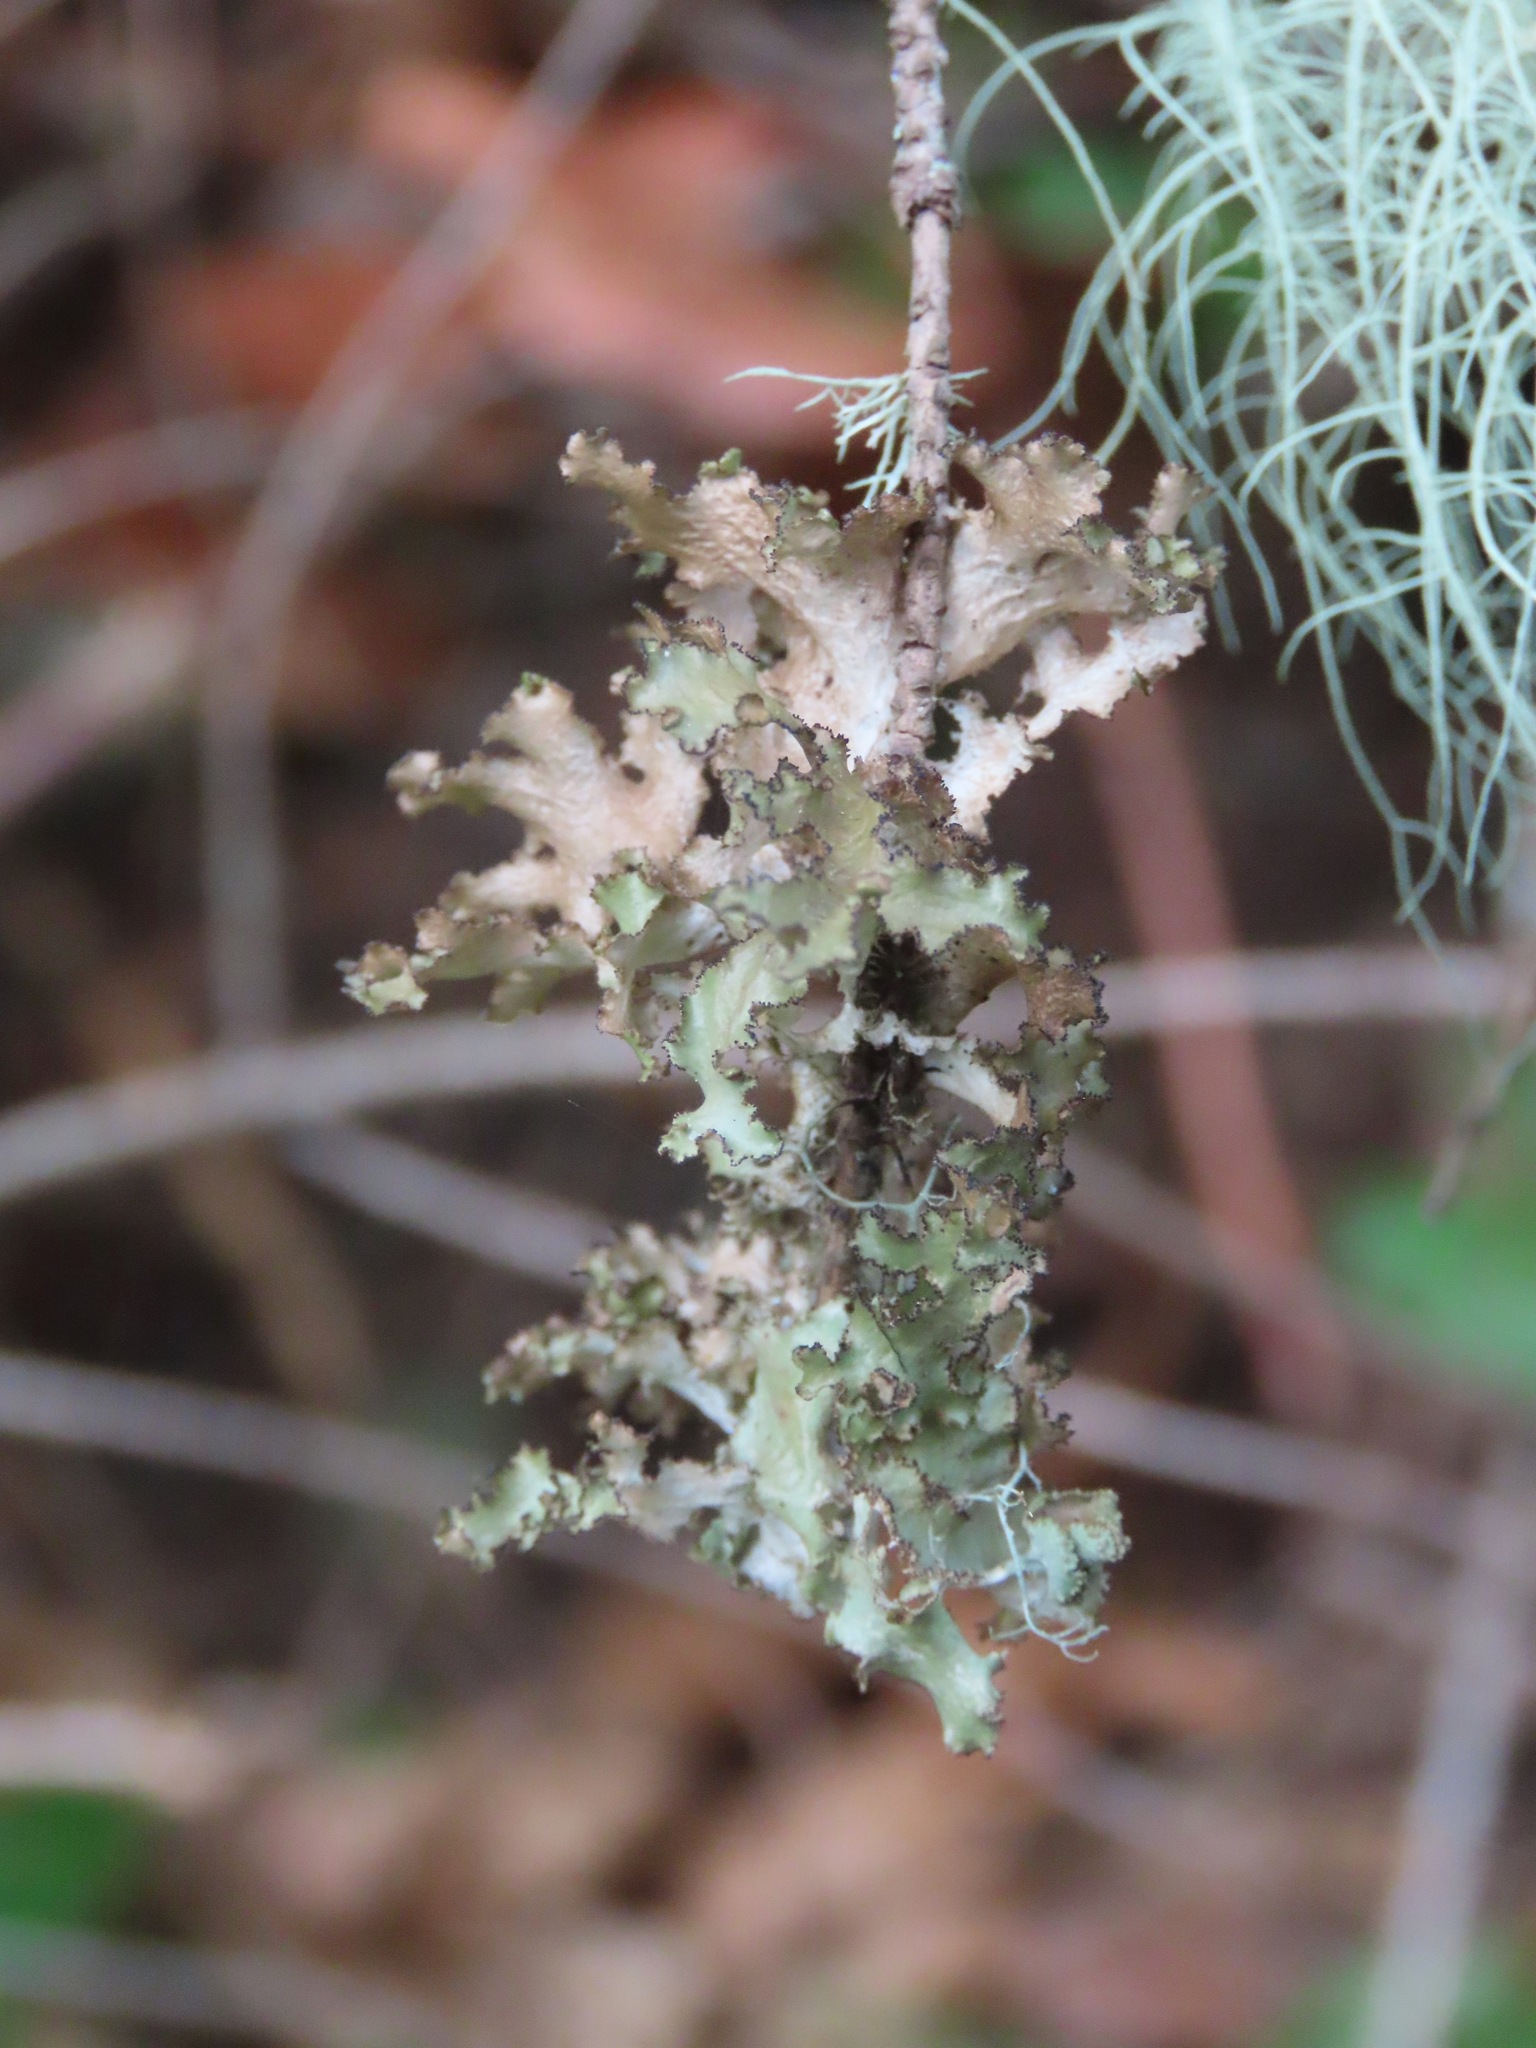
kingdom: Fungi
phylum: Ascomycota
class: Lecanoromycetes
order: Lecanorales
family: Parmeliaceae
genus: Nephromopsis
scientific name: Nephromopsis orbata
